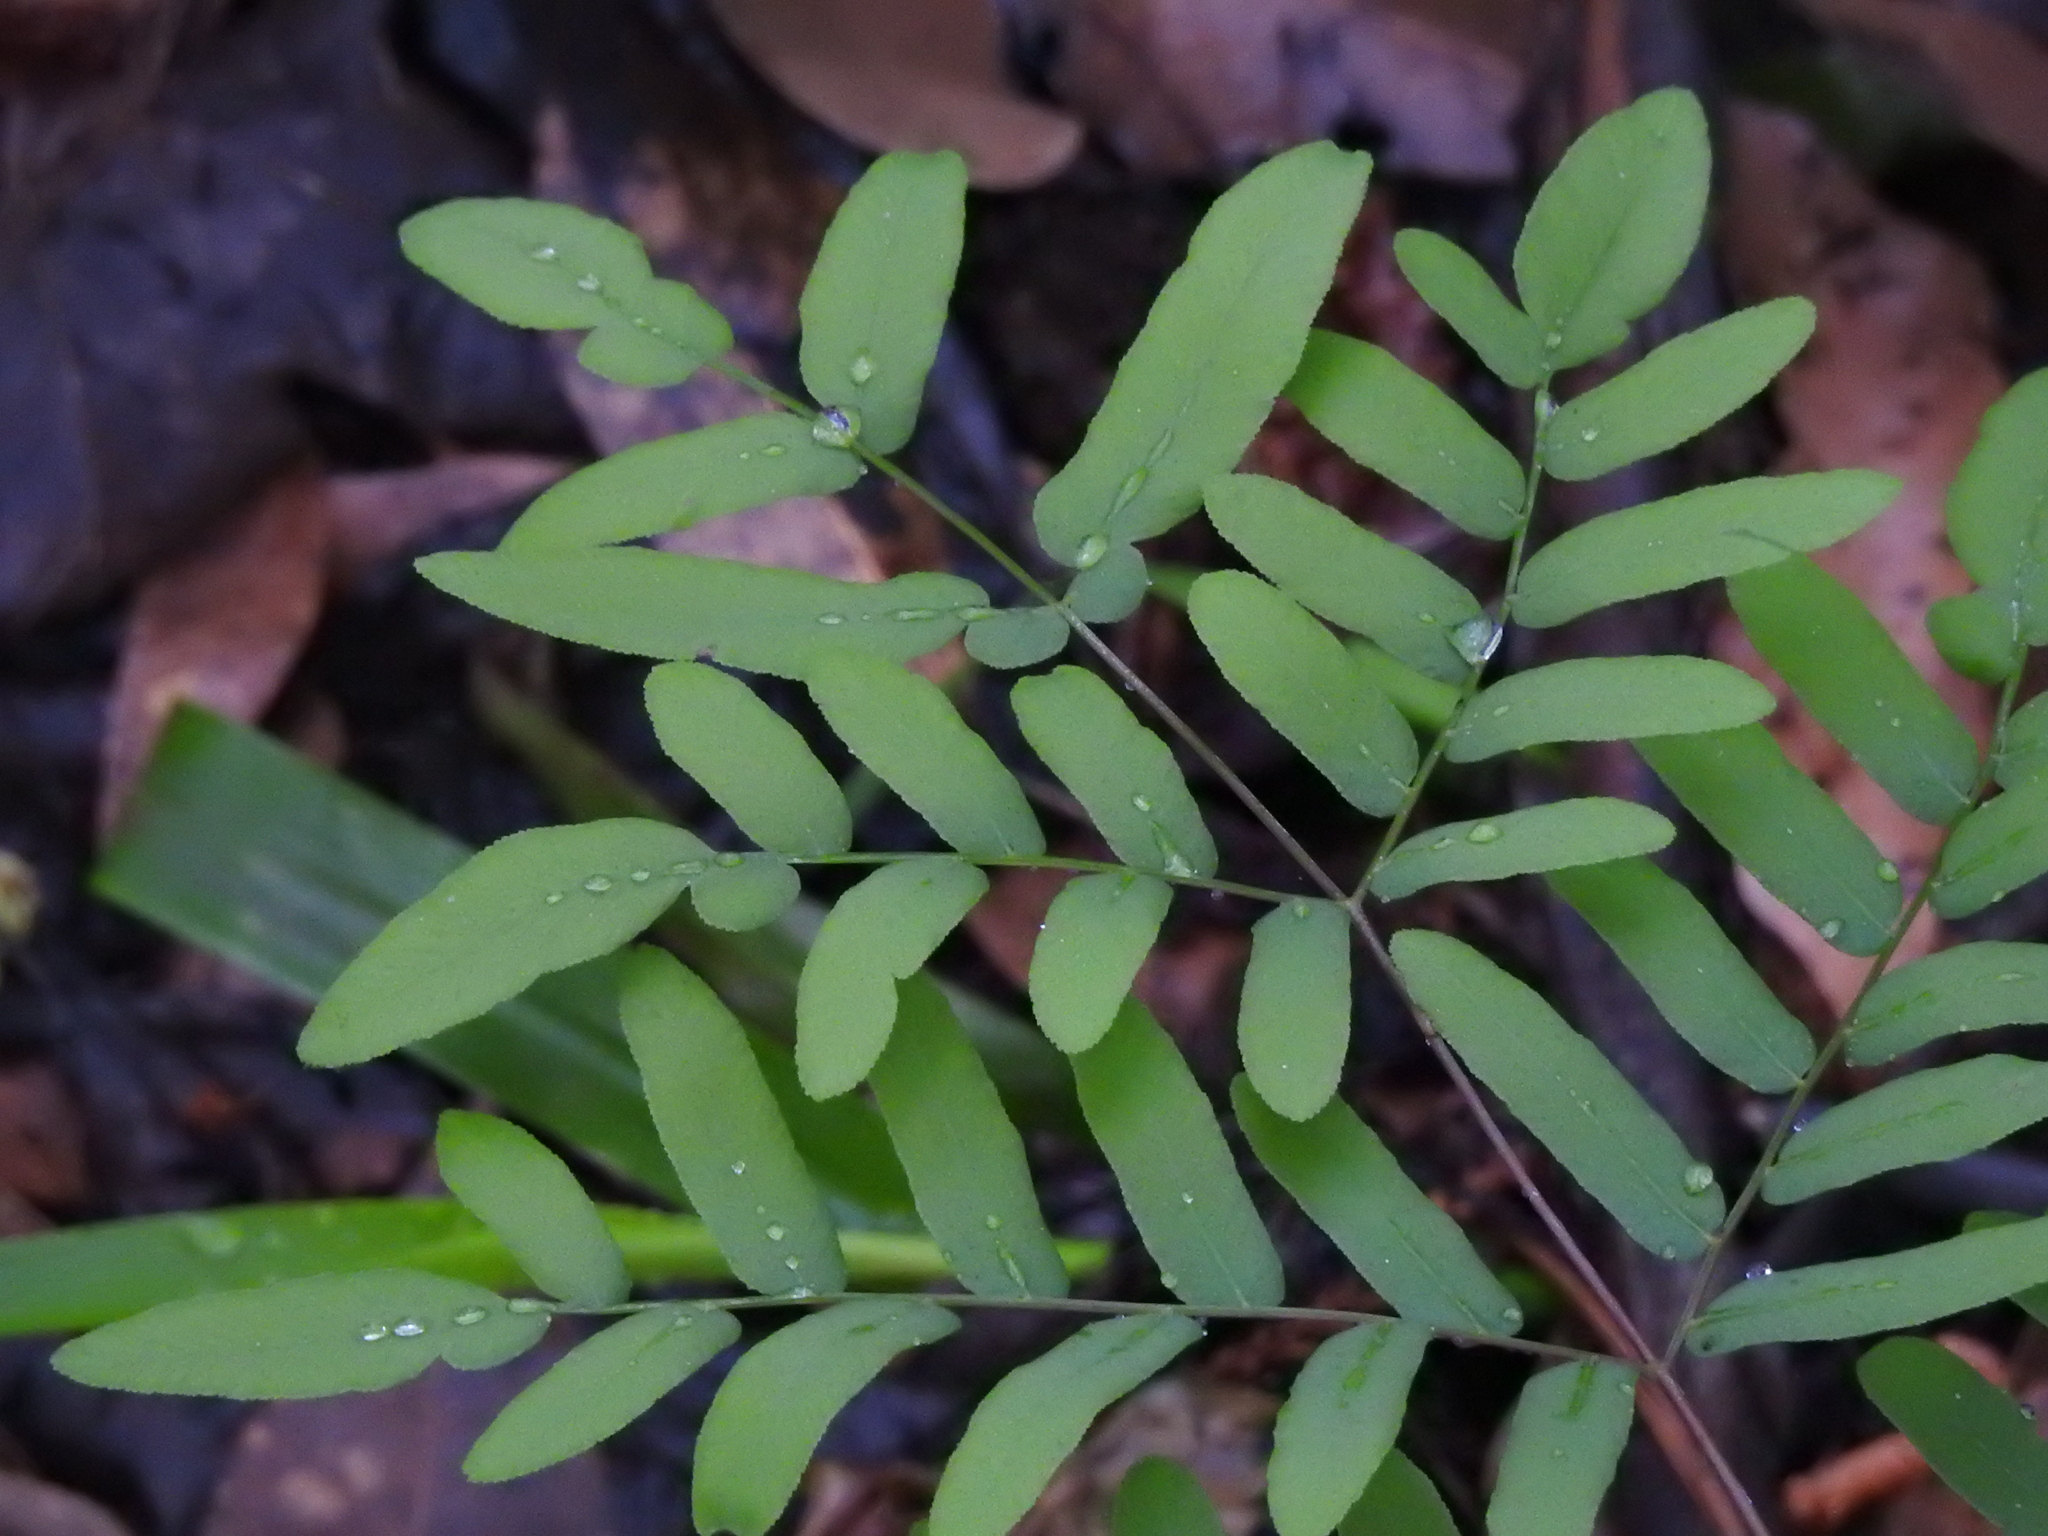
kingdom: Plantae
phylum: Tracheophyta
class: Polypodiopsida
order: Osmundales
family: Osmundaceae
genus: Osmunda
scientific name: Osmunda spectabilis
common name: American royal fern
